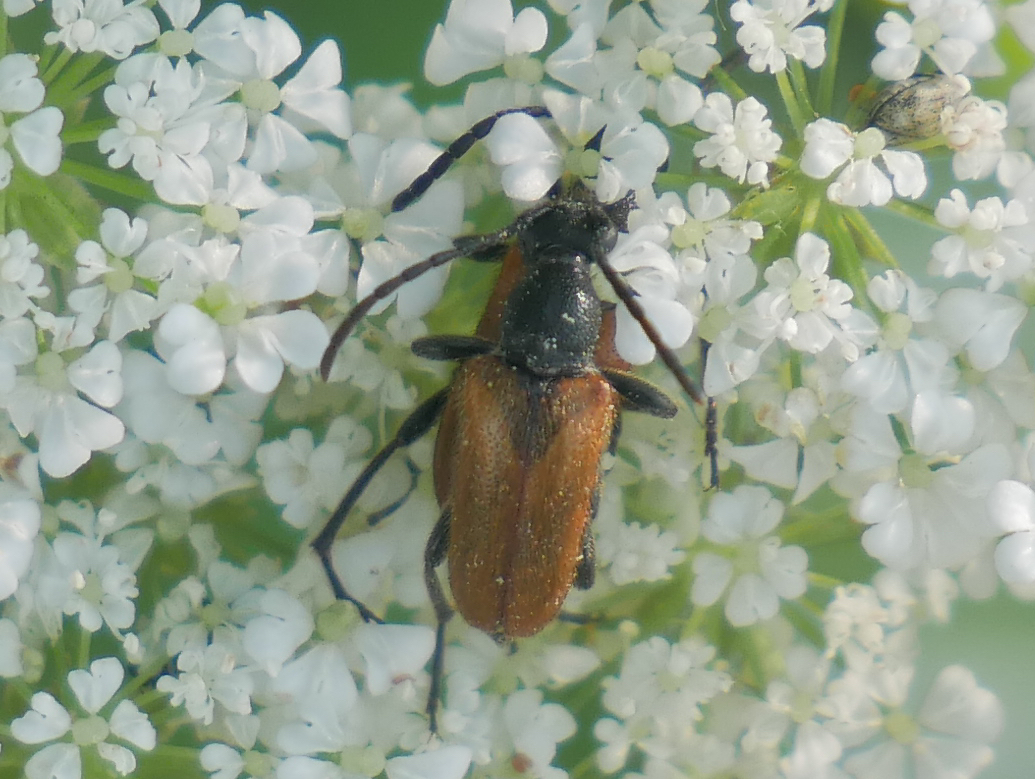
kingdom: Animalia
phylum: Arthropoda
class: Insecta
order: Coleoptera
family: Cerambycidae
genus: Pseudovadonia
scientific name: Pseudovadonia livida
